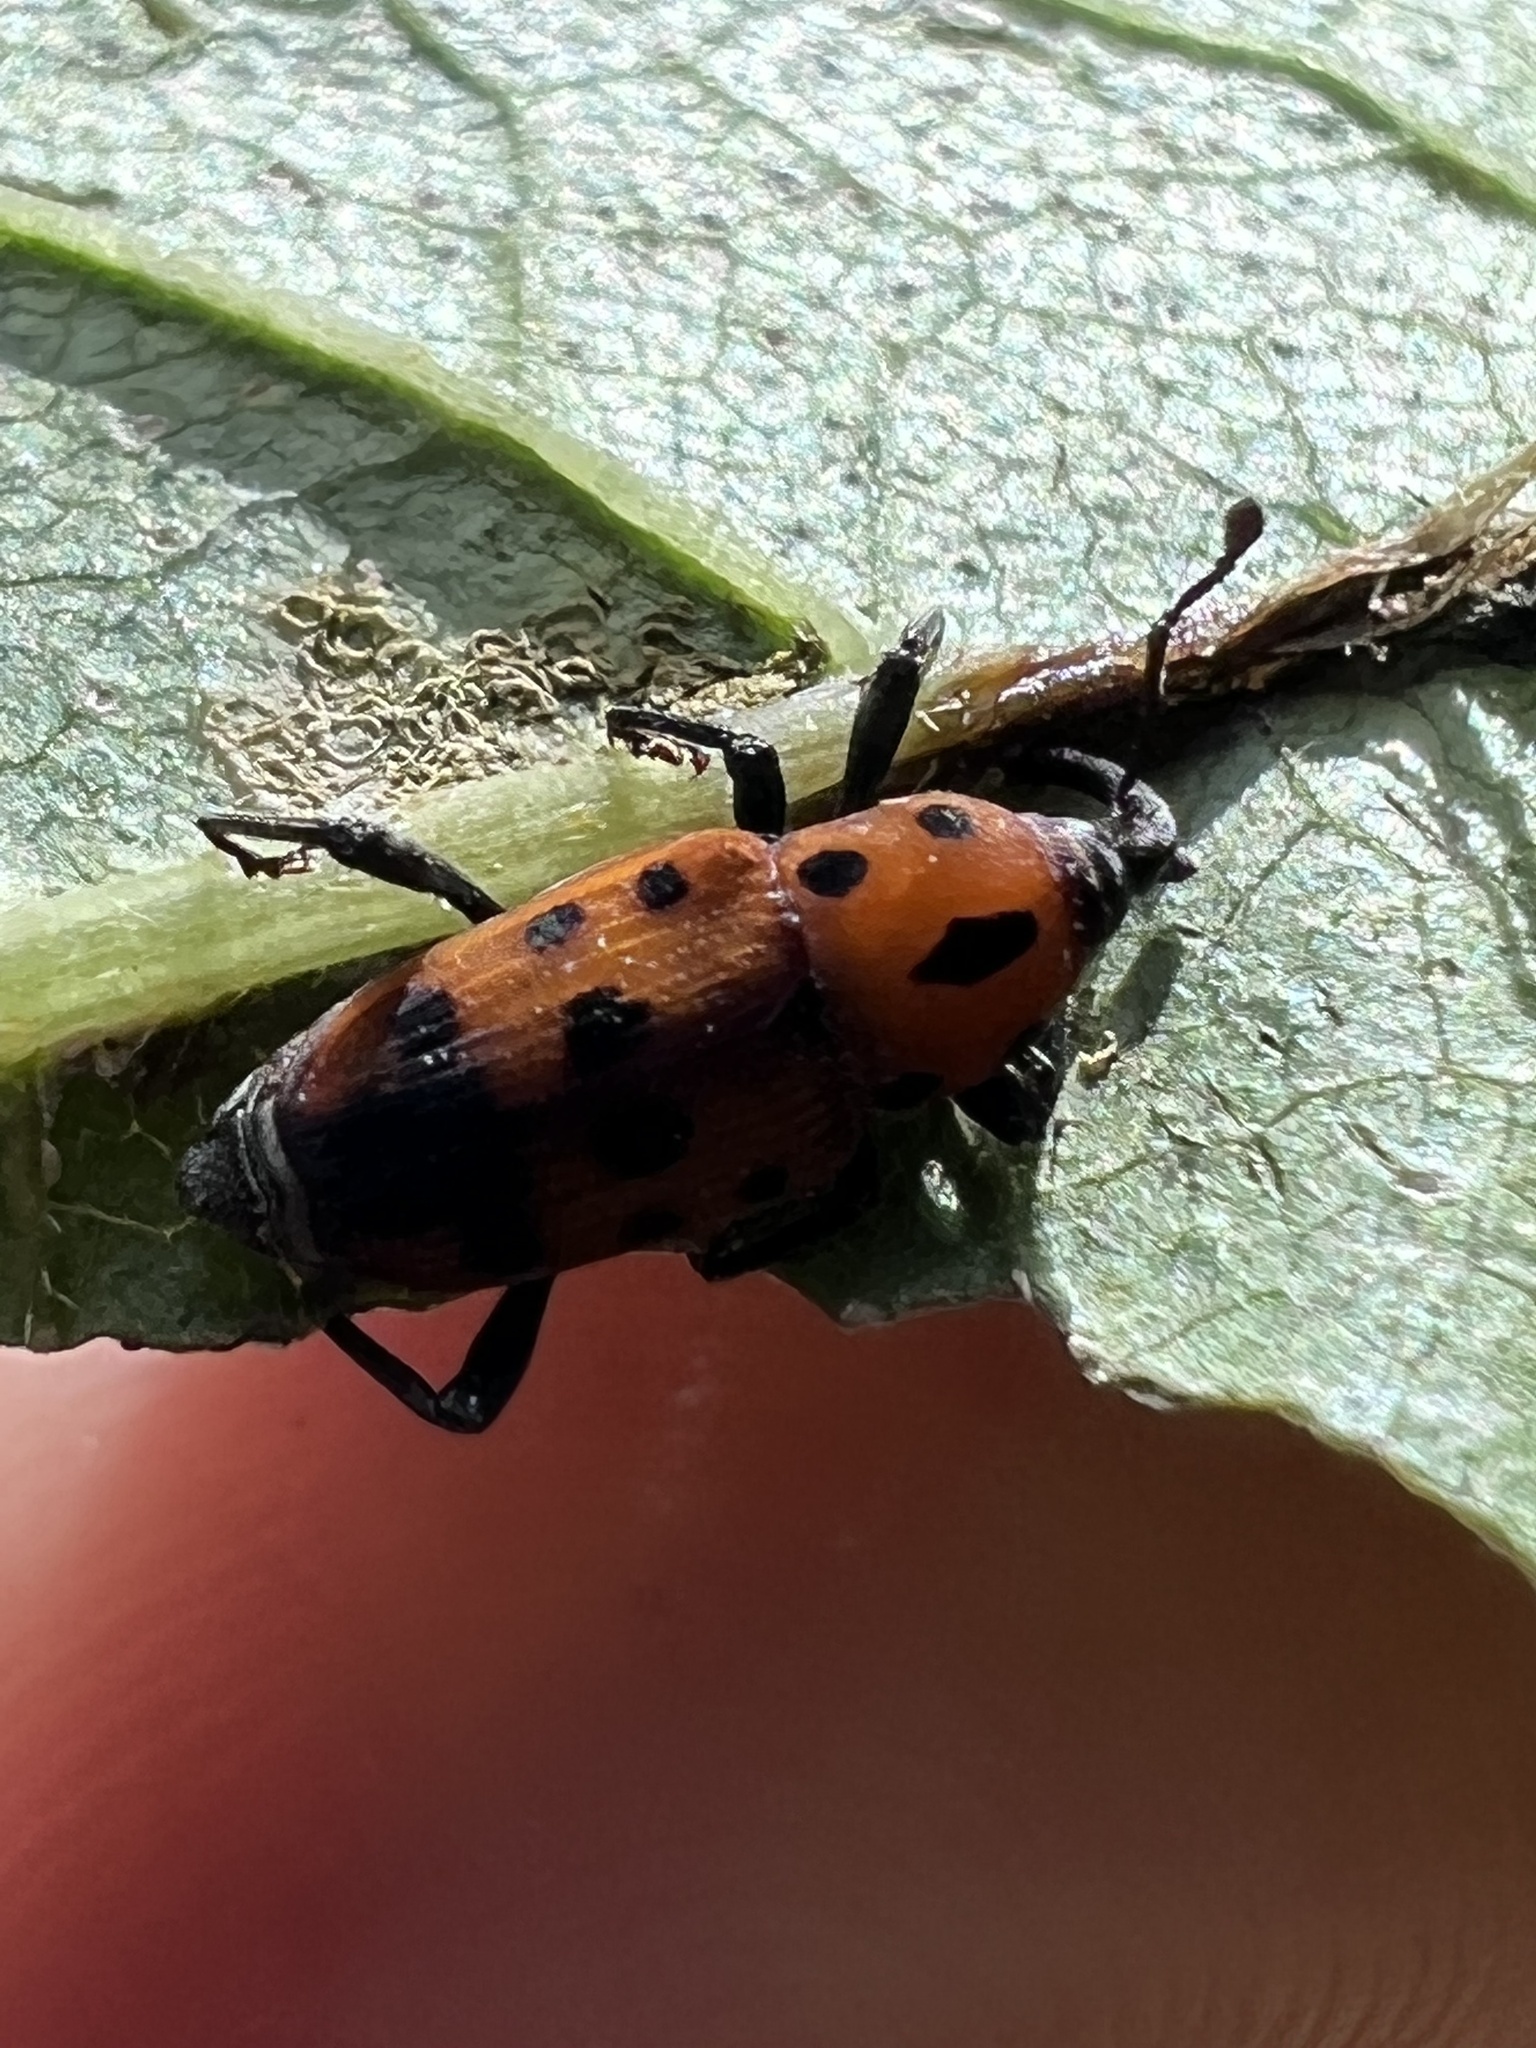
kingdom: Animalia
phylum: Arthropoda
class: Insecta
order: Coleoptera
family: Dryophthoridae
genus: Rhodobaenus
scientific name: Rhodobaenus quinquepunctatus
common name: Cocklebur weevil
